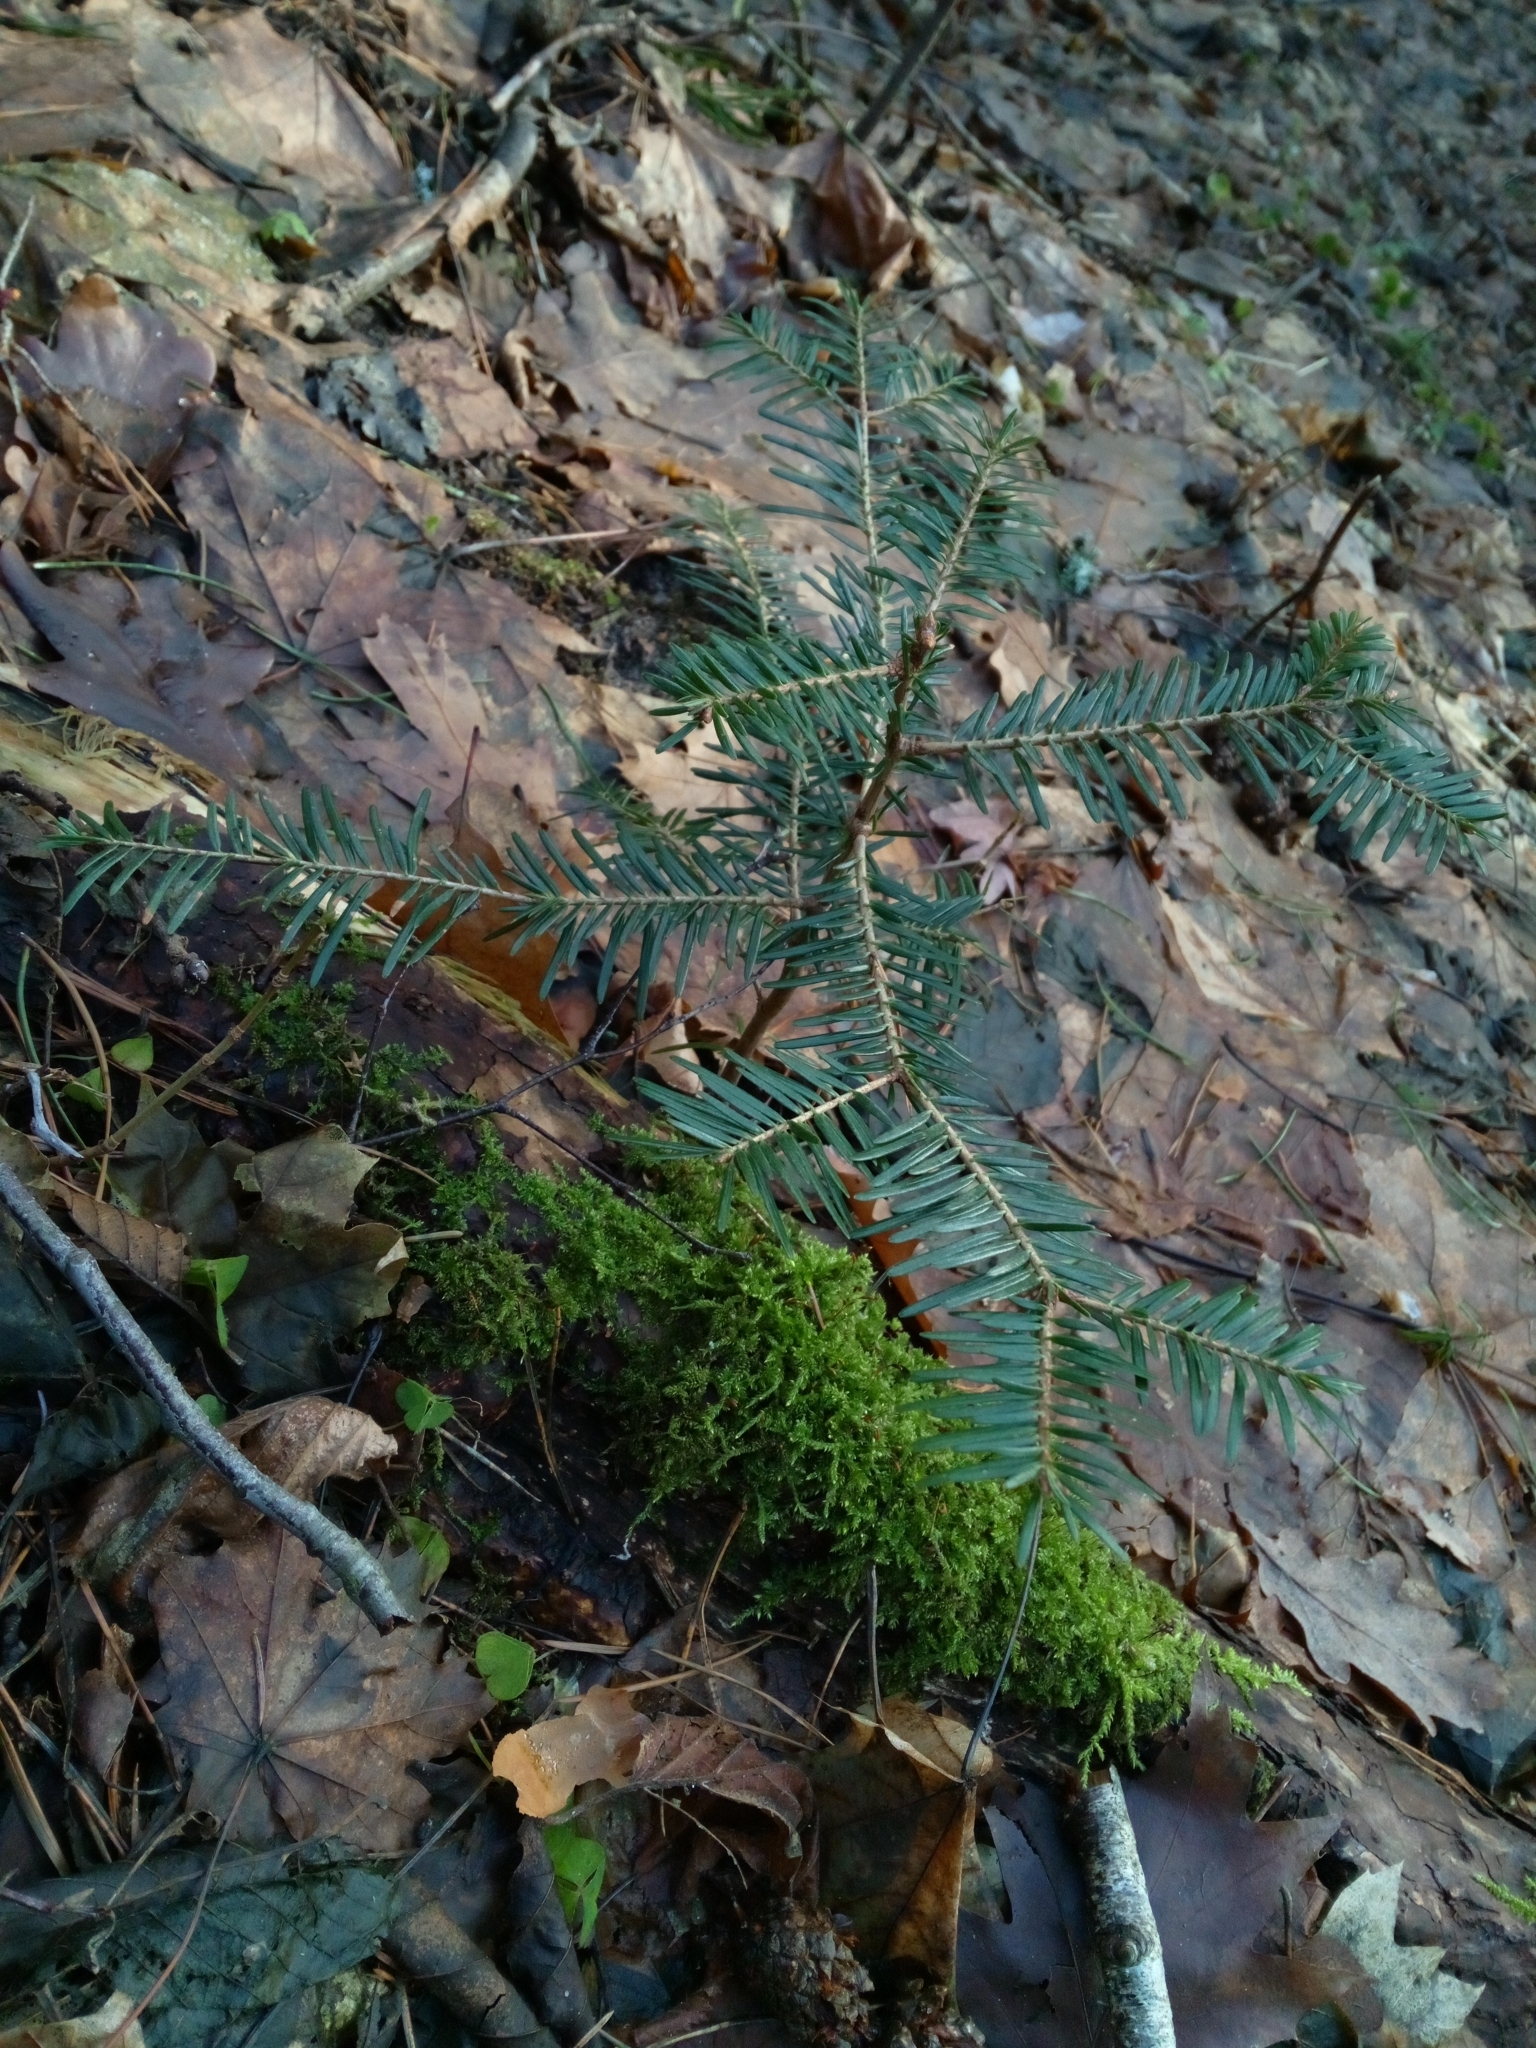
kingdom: Plantae
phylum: Tracheophyta
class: Pinopsida
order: Pinales
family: Pinaceae
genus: Abies
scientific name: Abies alba
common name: Silver fir
